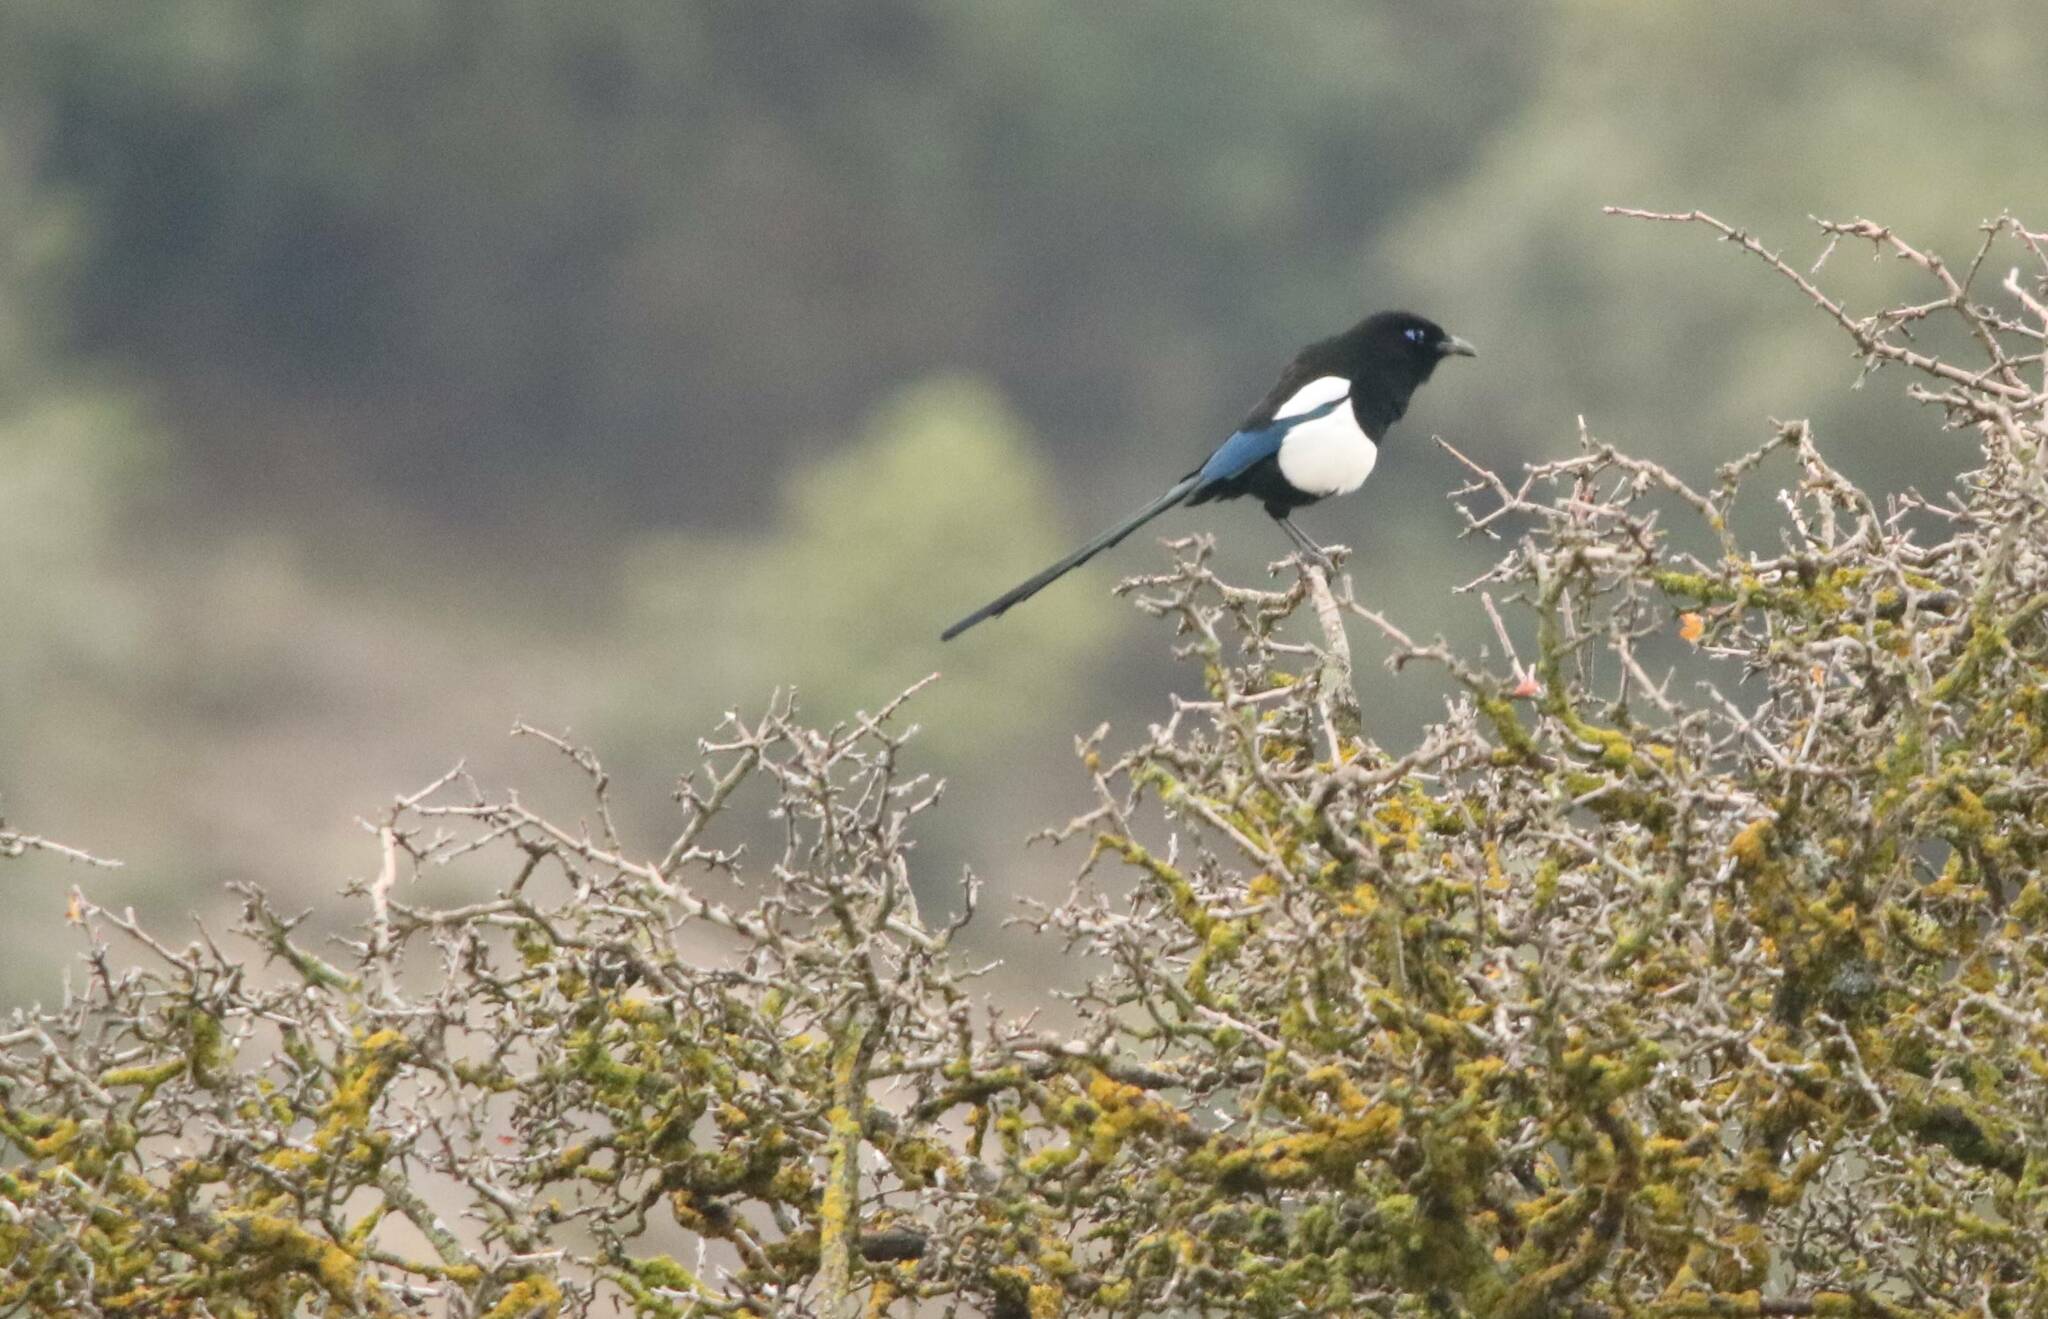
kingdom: Animalia
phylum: Chordata
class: Aves
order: Passeriformes
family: Corvidae
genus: Pica
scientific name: Pica mauritanica
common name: Maghreb magpie
